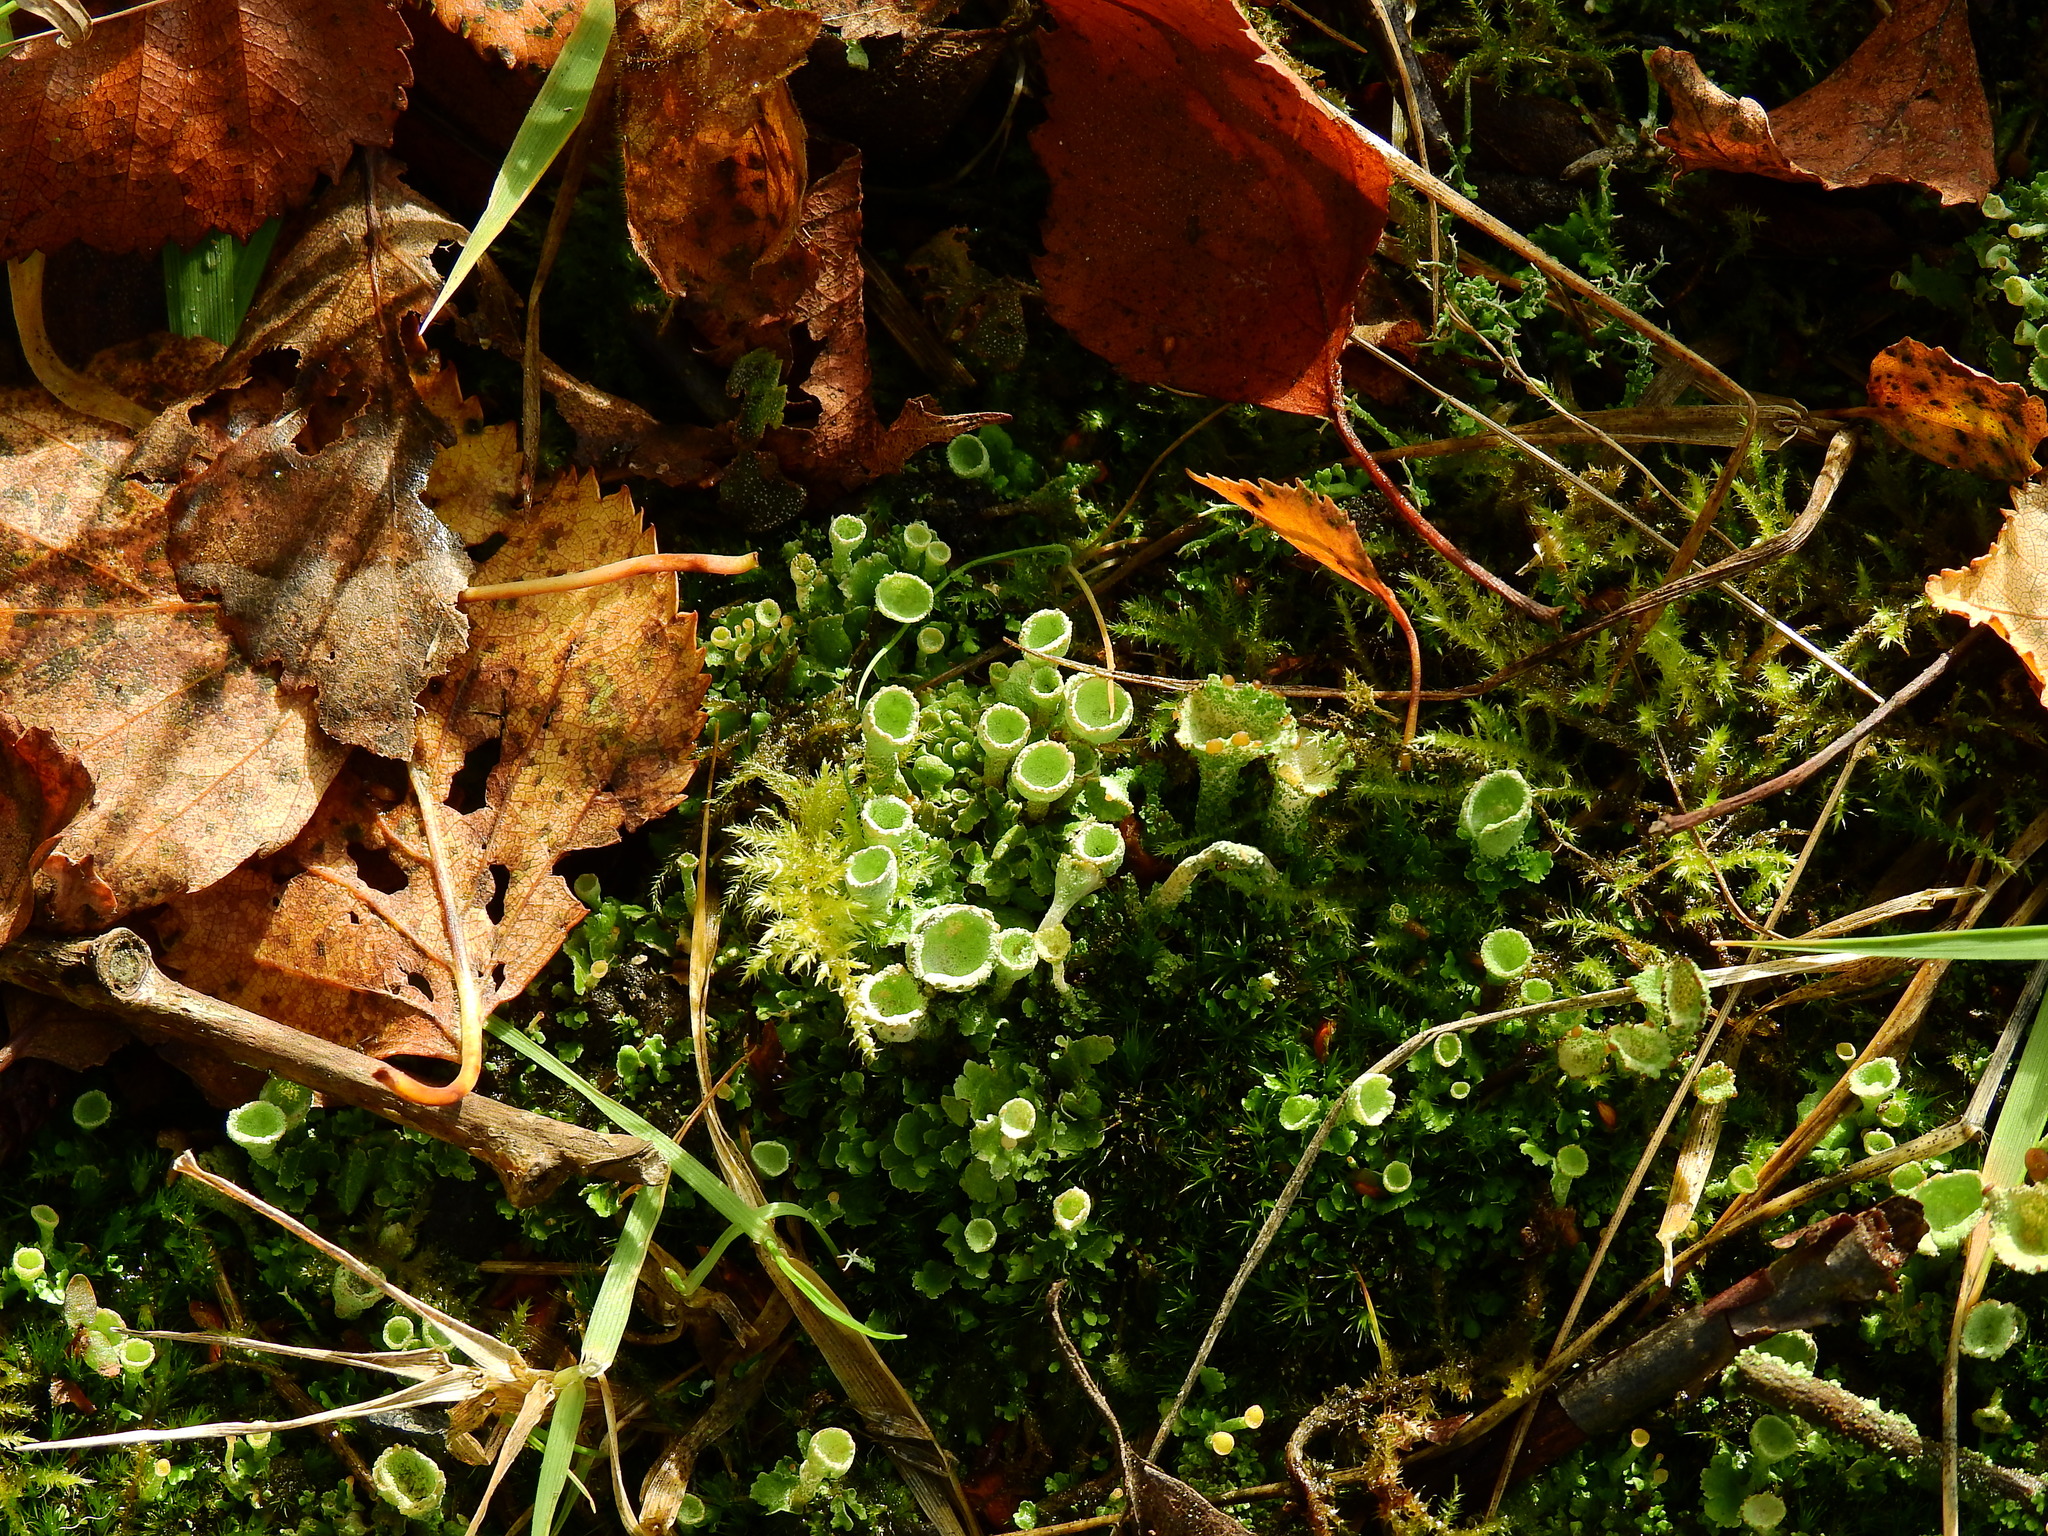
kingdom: Fungi
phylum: Ascomycota
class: Lecanoromycetes
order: Lecanorales
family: Cladoniaceae
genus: Cladonia
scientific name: Cladonia
